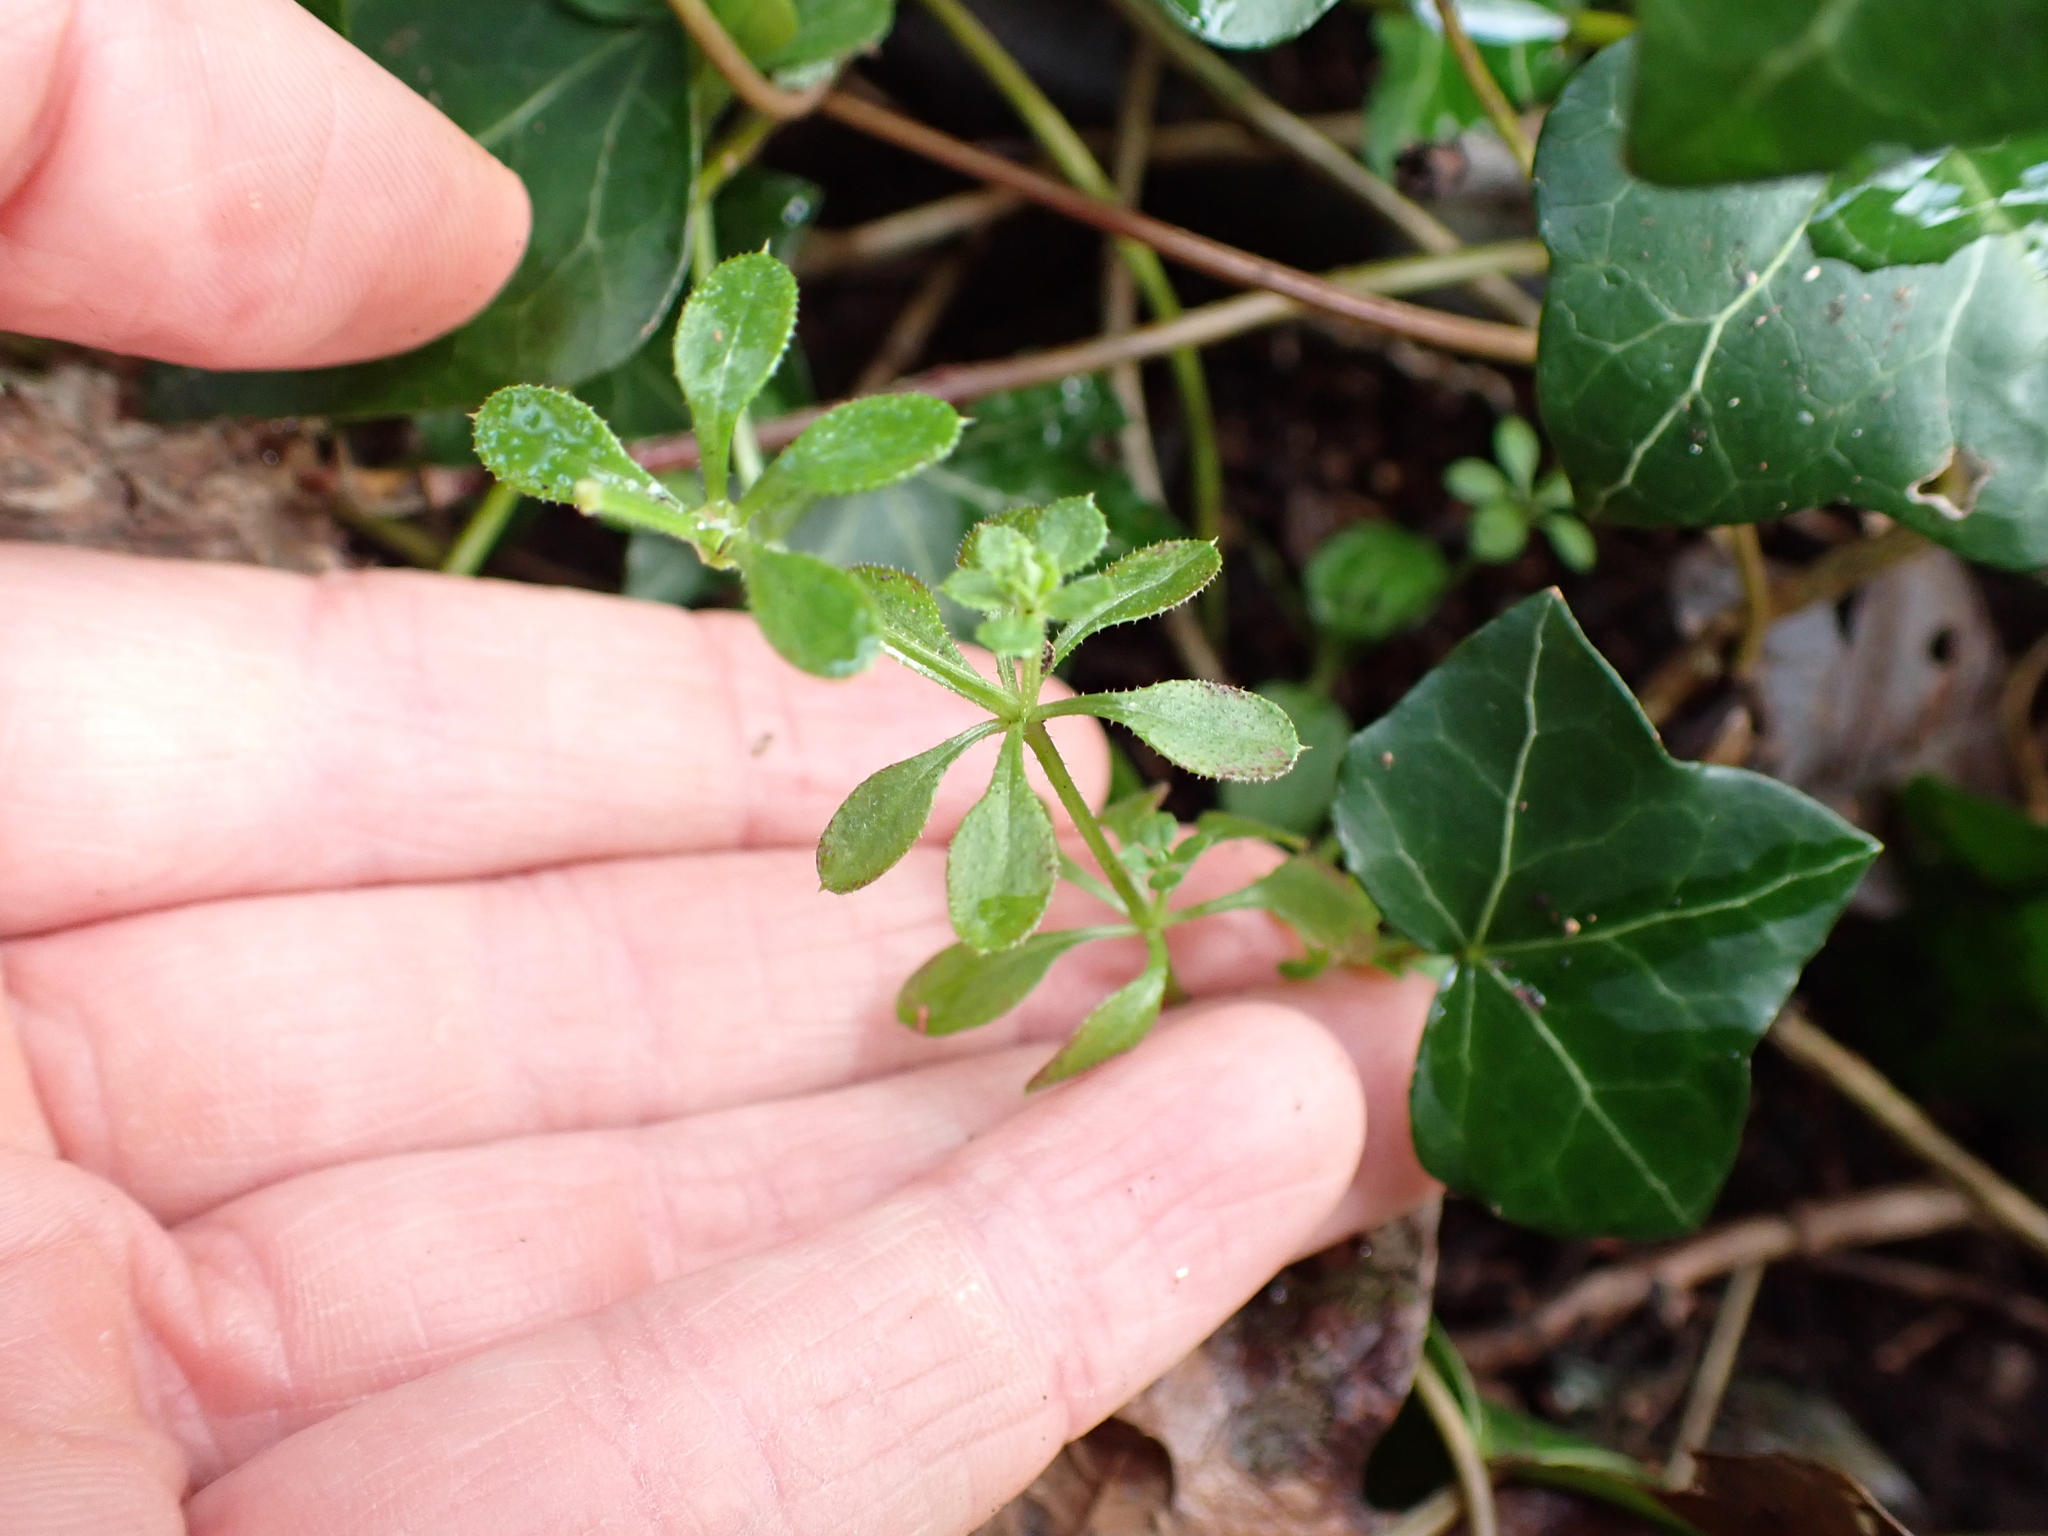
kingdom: Plantae
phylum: Tracheophyta
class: Magnoliopsida
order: Gentianales
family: Rubiaceae
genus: Galium
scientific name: Galium aparine
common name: Cleavers
